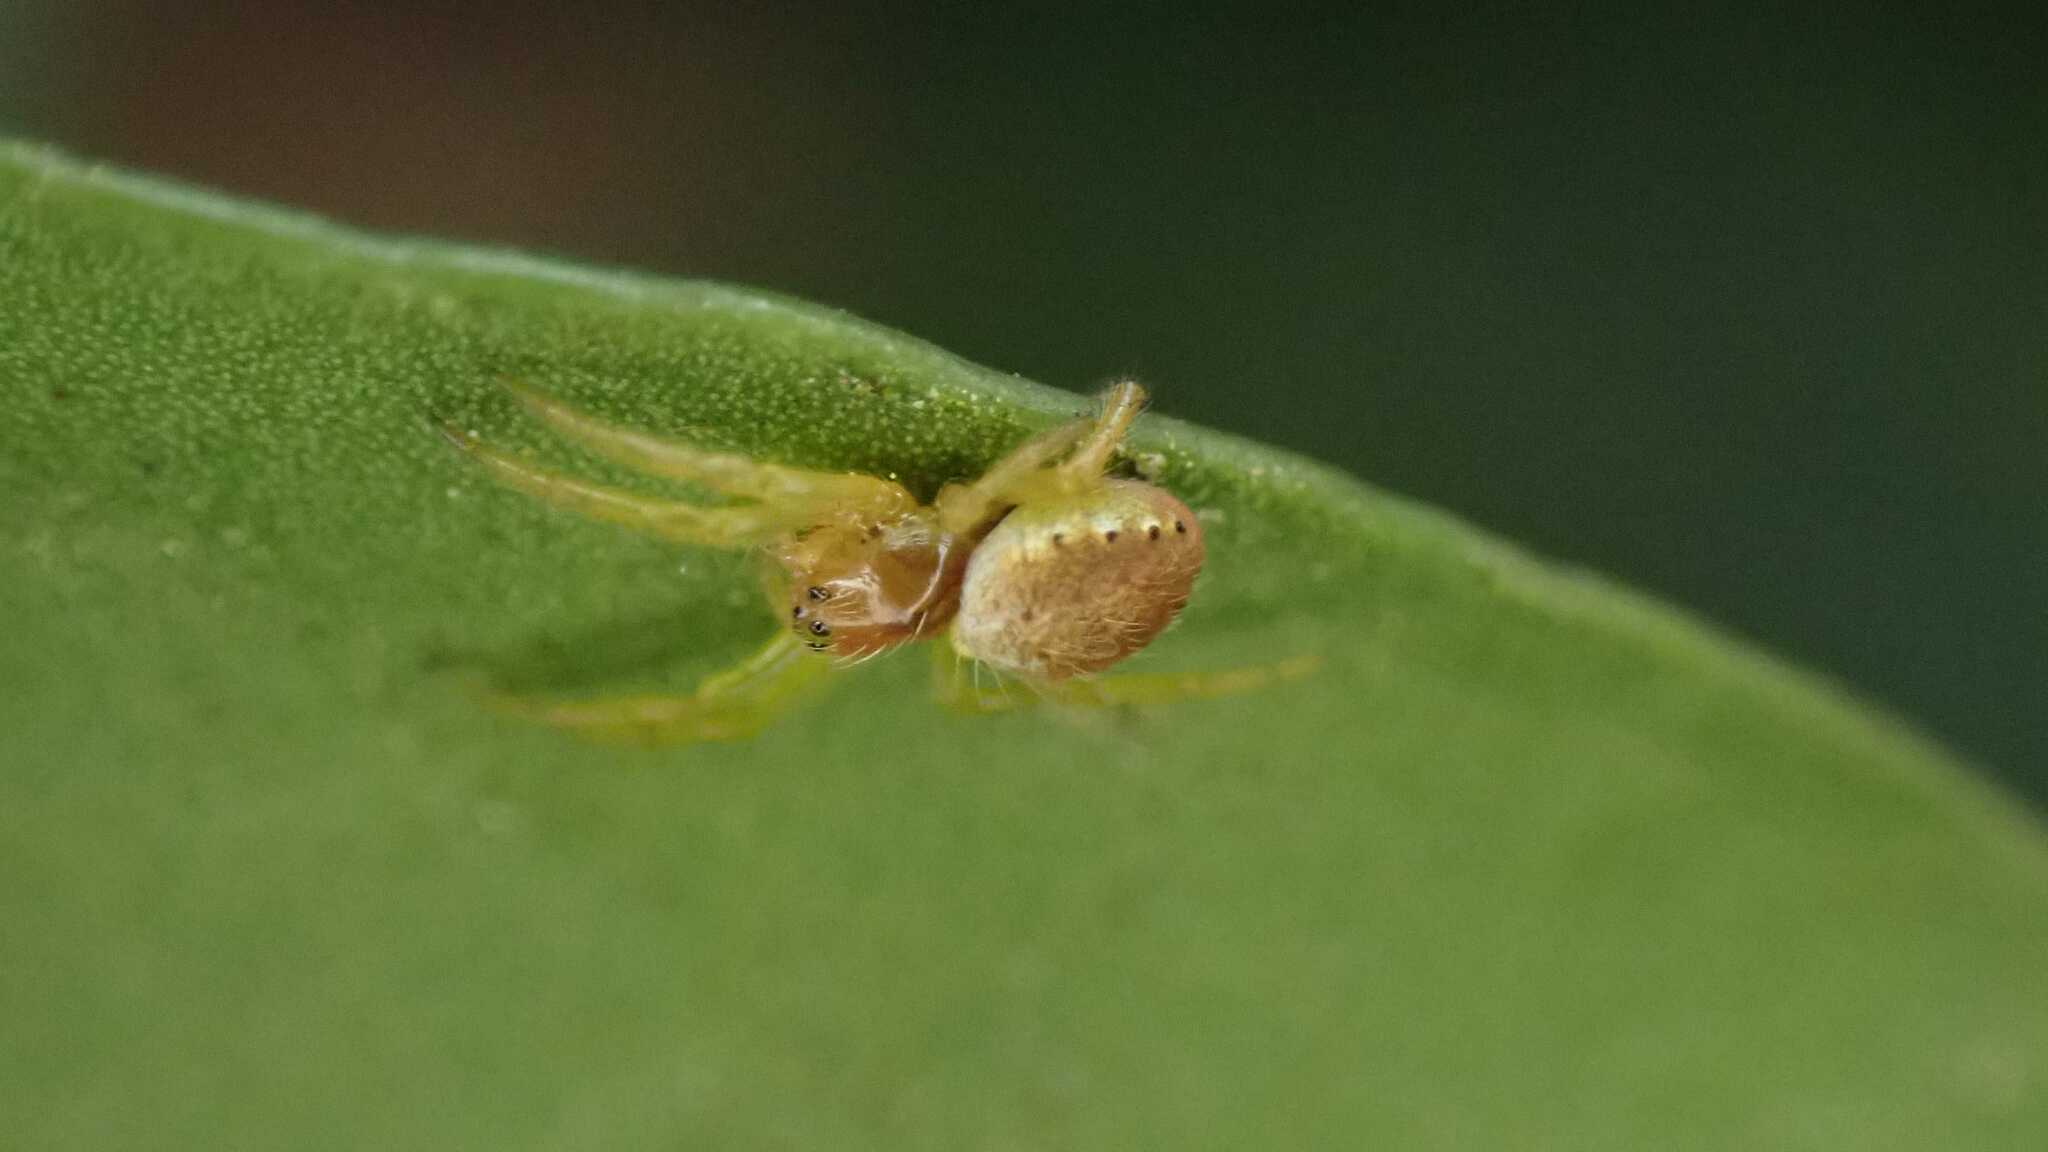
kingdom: Animalia
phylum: Arthropoda
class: Arachnida
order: Araneae
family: Araneidae
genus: Araniella
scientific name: Araniella
